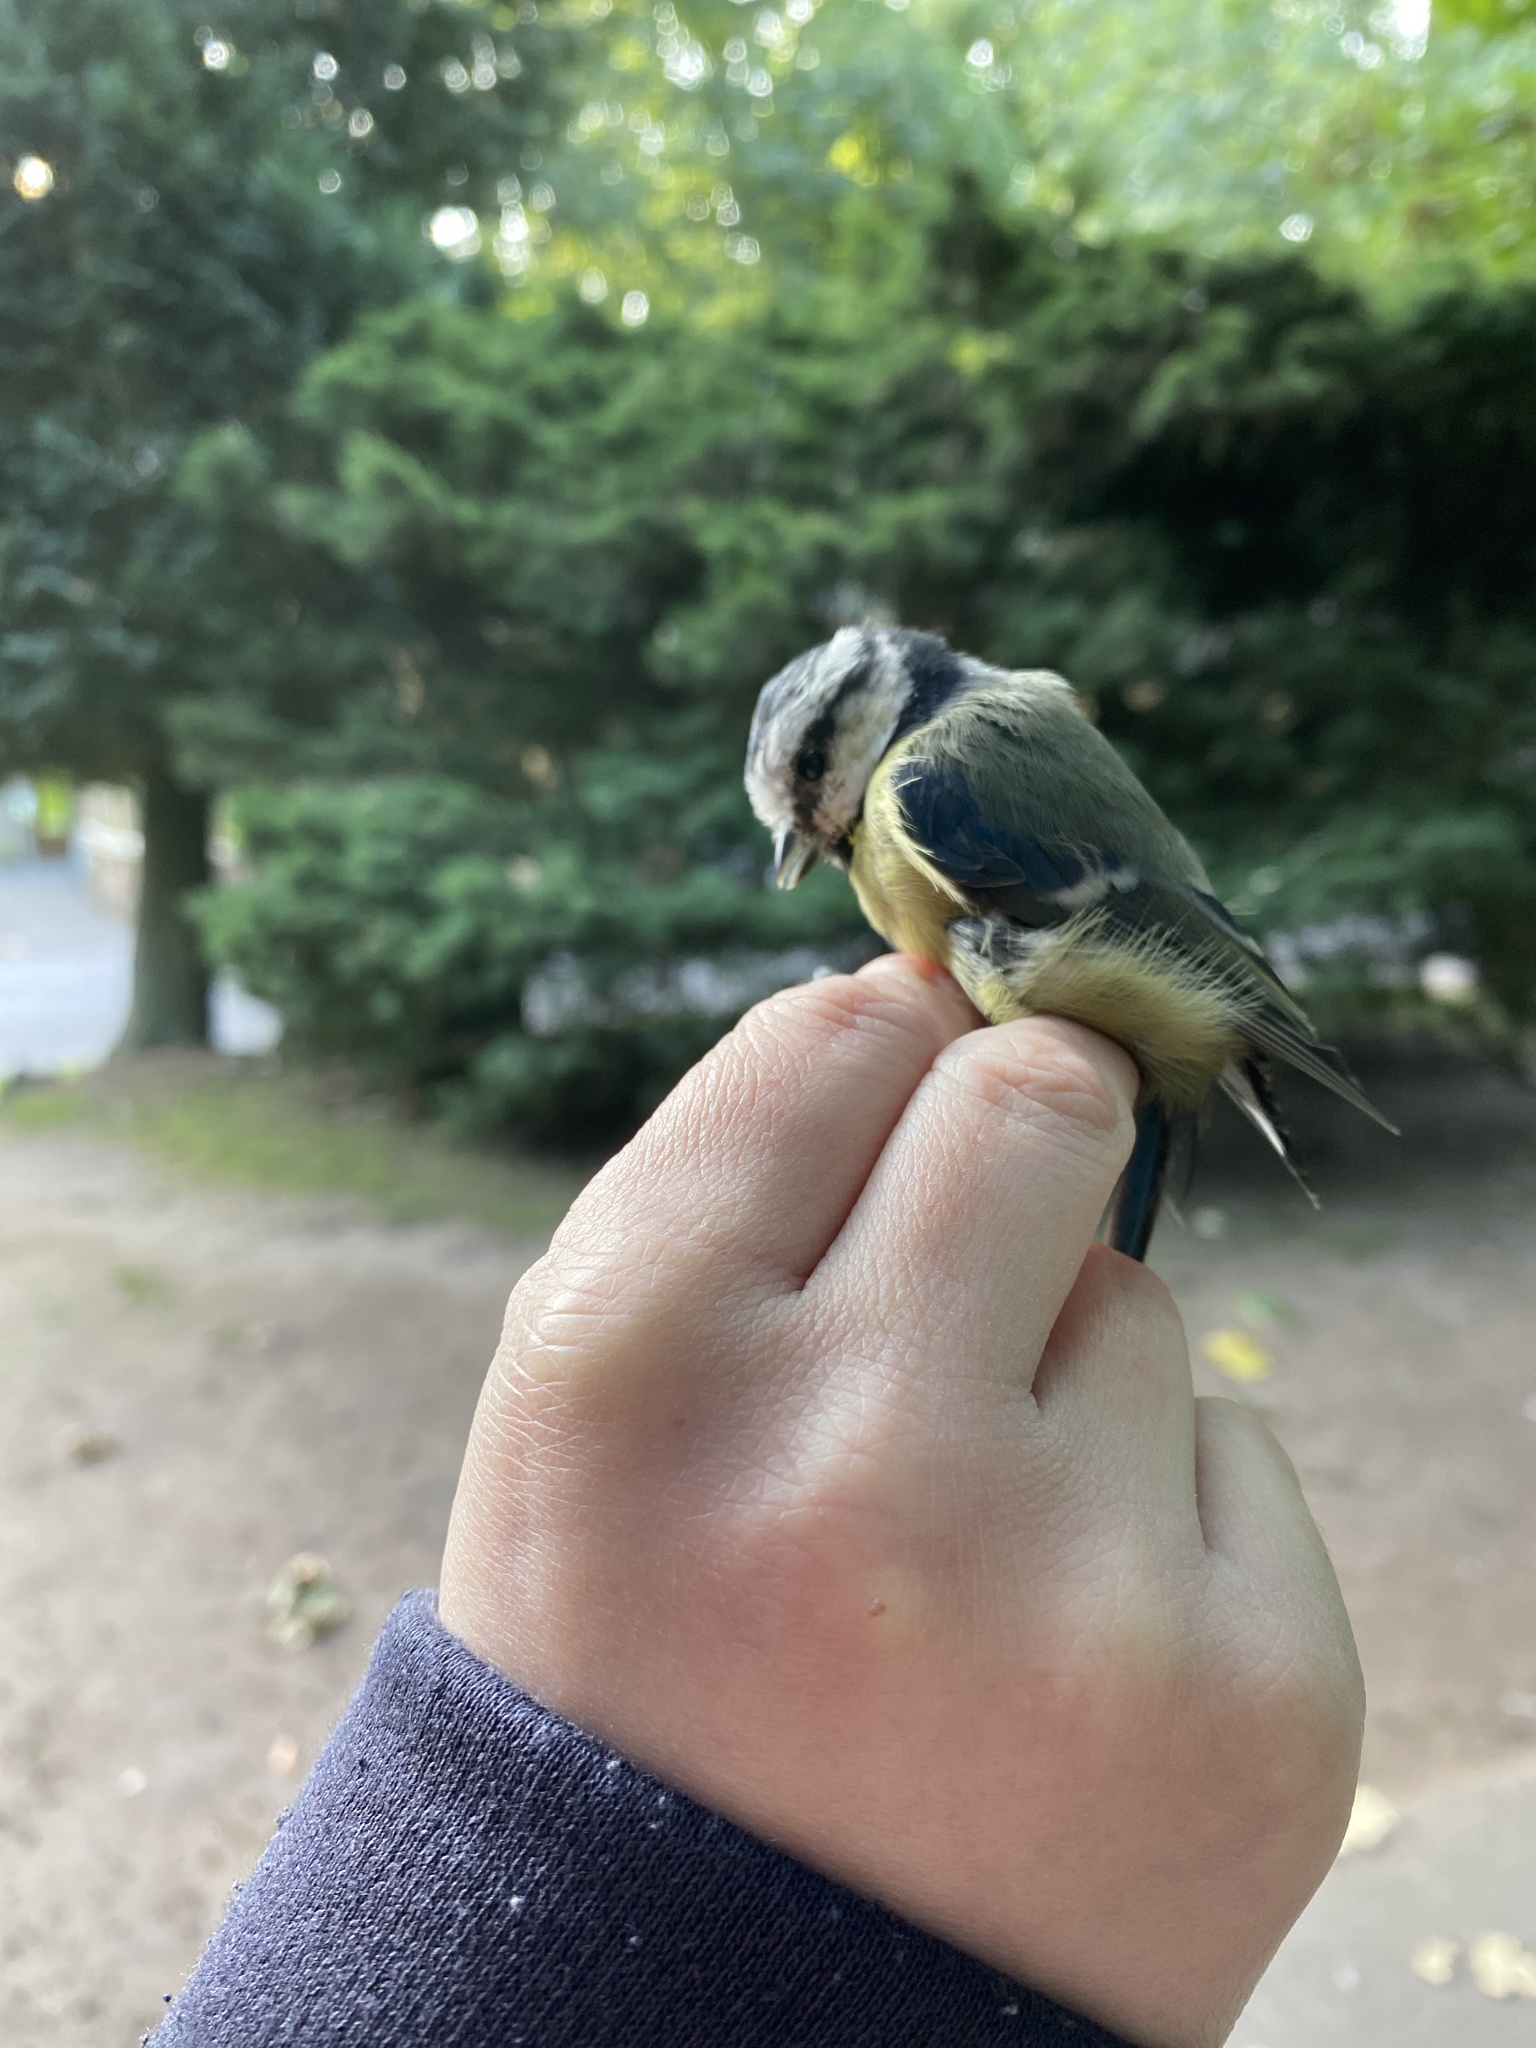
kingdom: Animalia
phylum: Chordata
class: Aves
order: Passeriformes
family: Paridae
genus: Cyanistes
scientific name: Cyanistes caeruleus
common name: Eurasian blue tit
